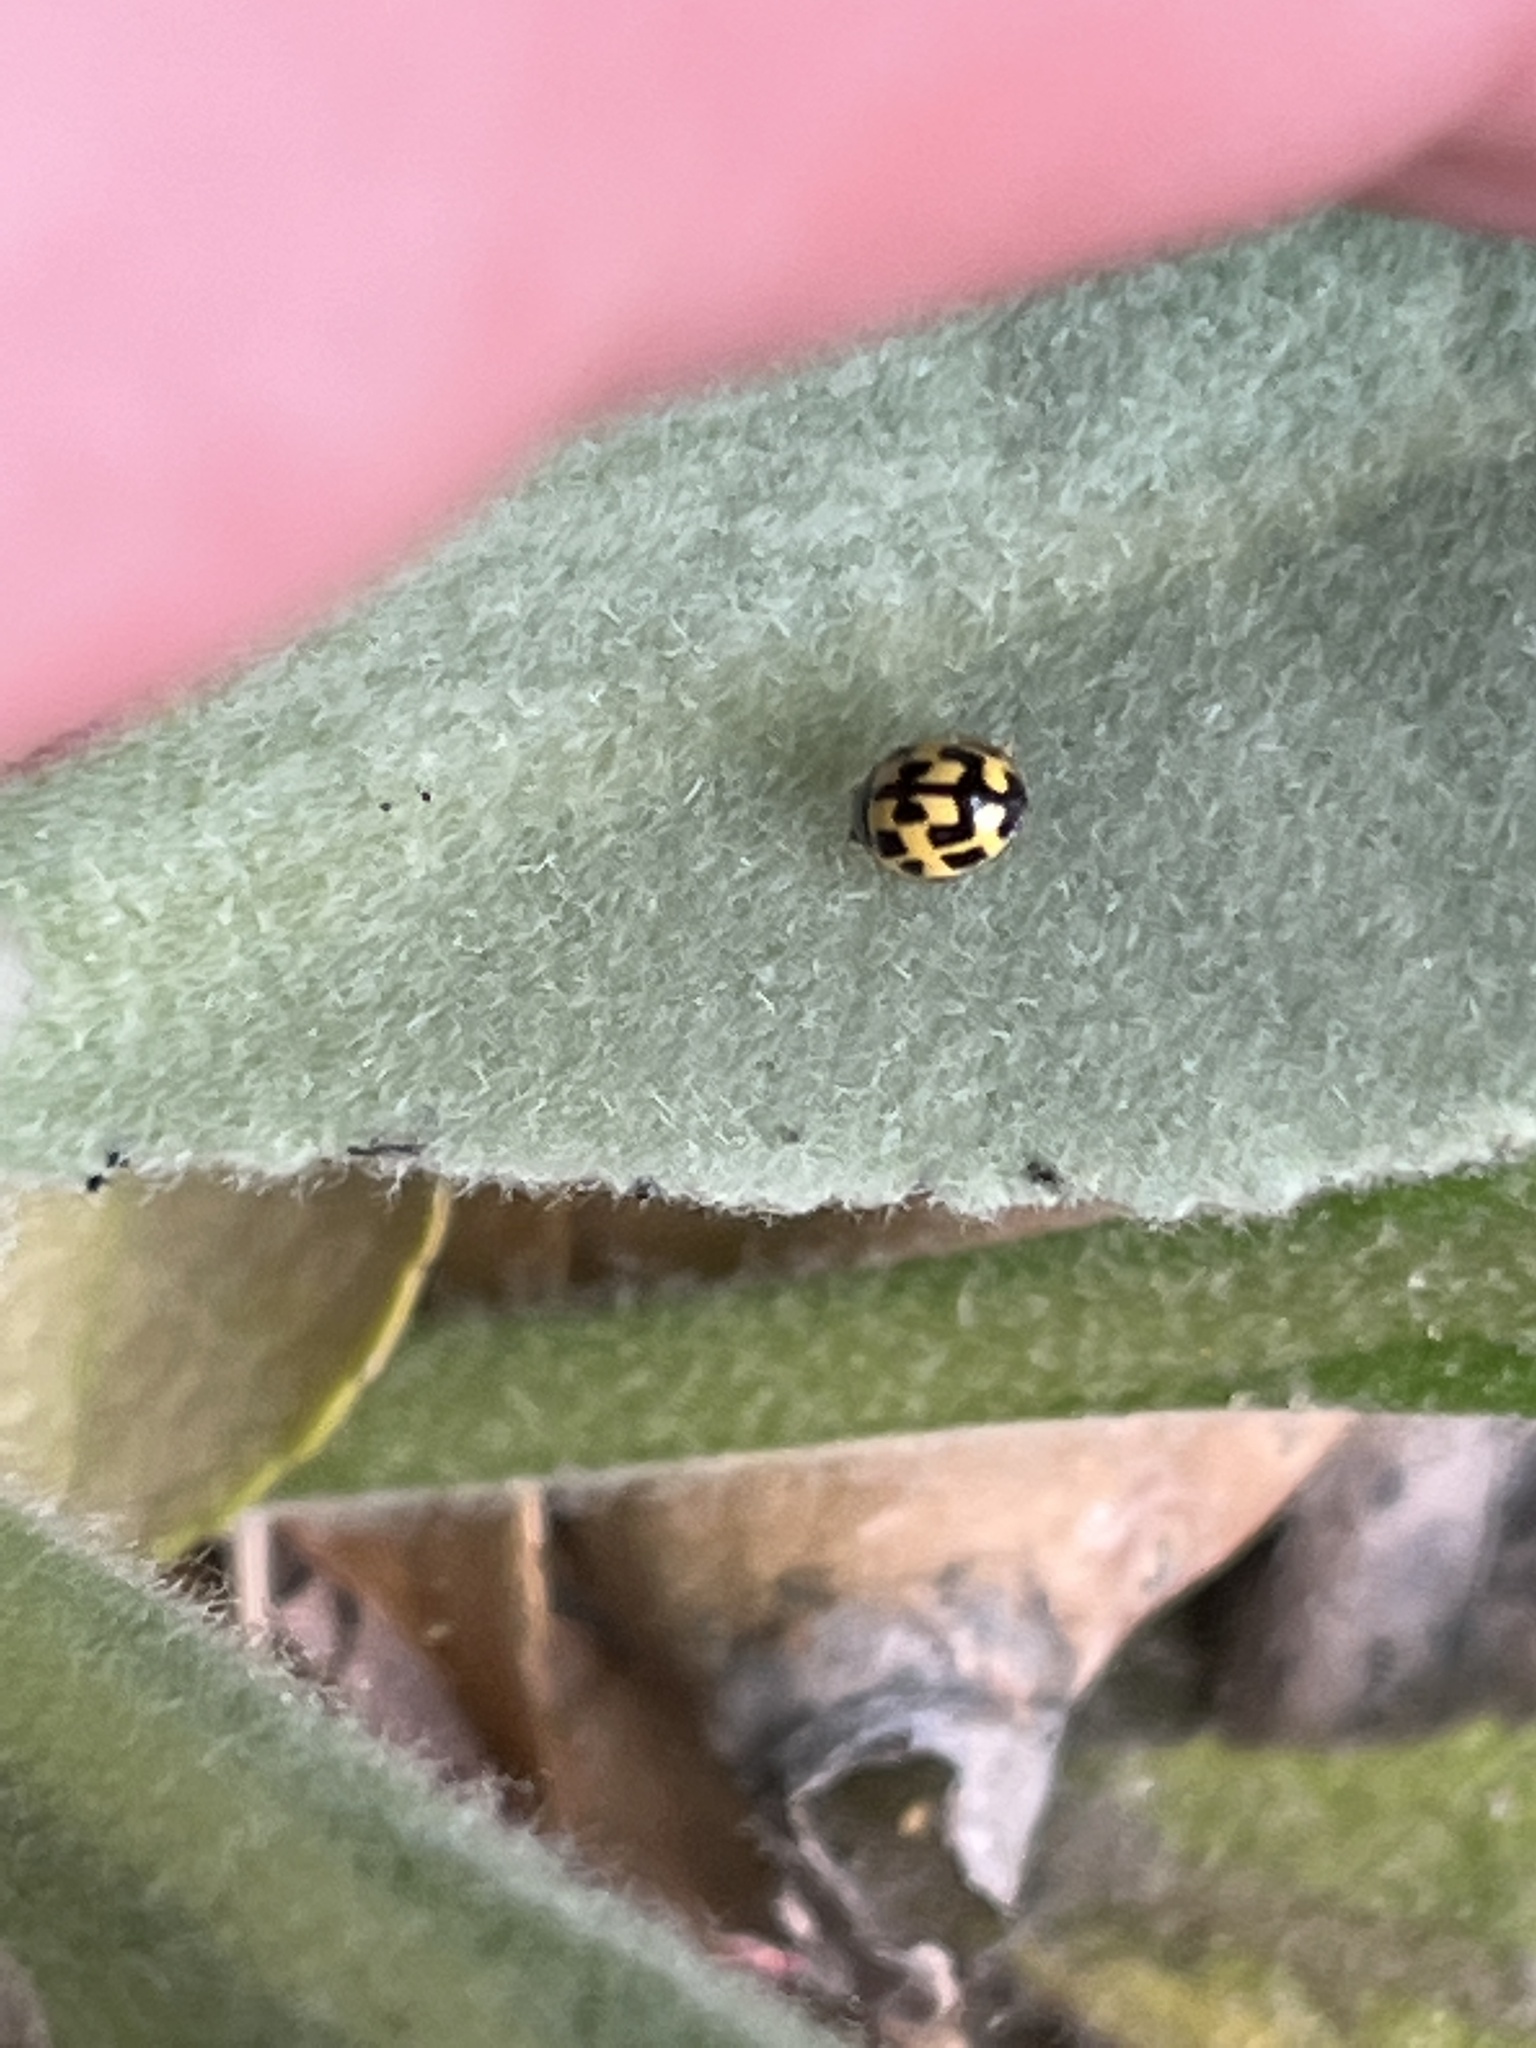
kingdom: Animalia
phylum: Arthropoda
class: Insecta
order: Coleoptera
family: Coccinellidae
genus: Propylaea
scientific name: Propylaea quatuordecimpunctata
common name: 14-spotted ladybird beetle
